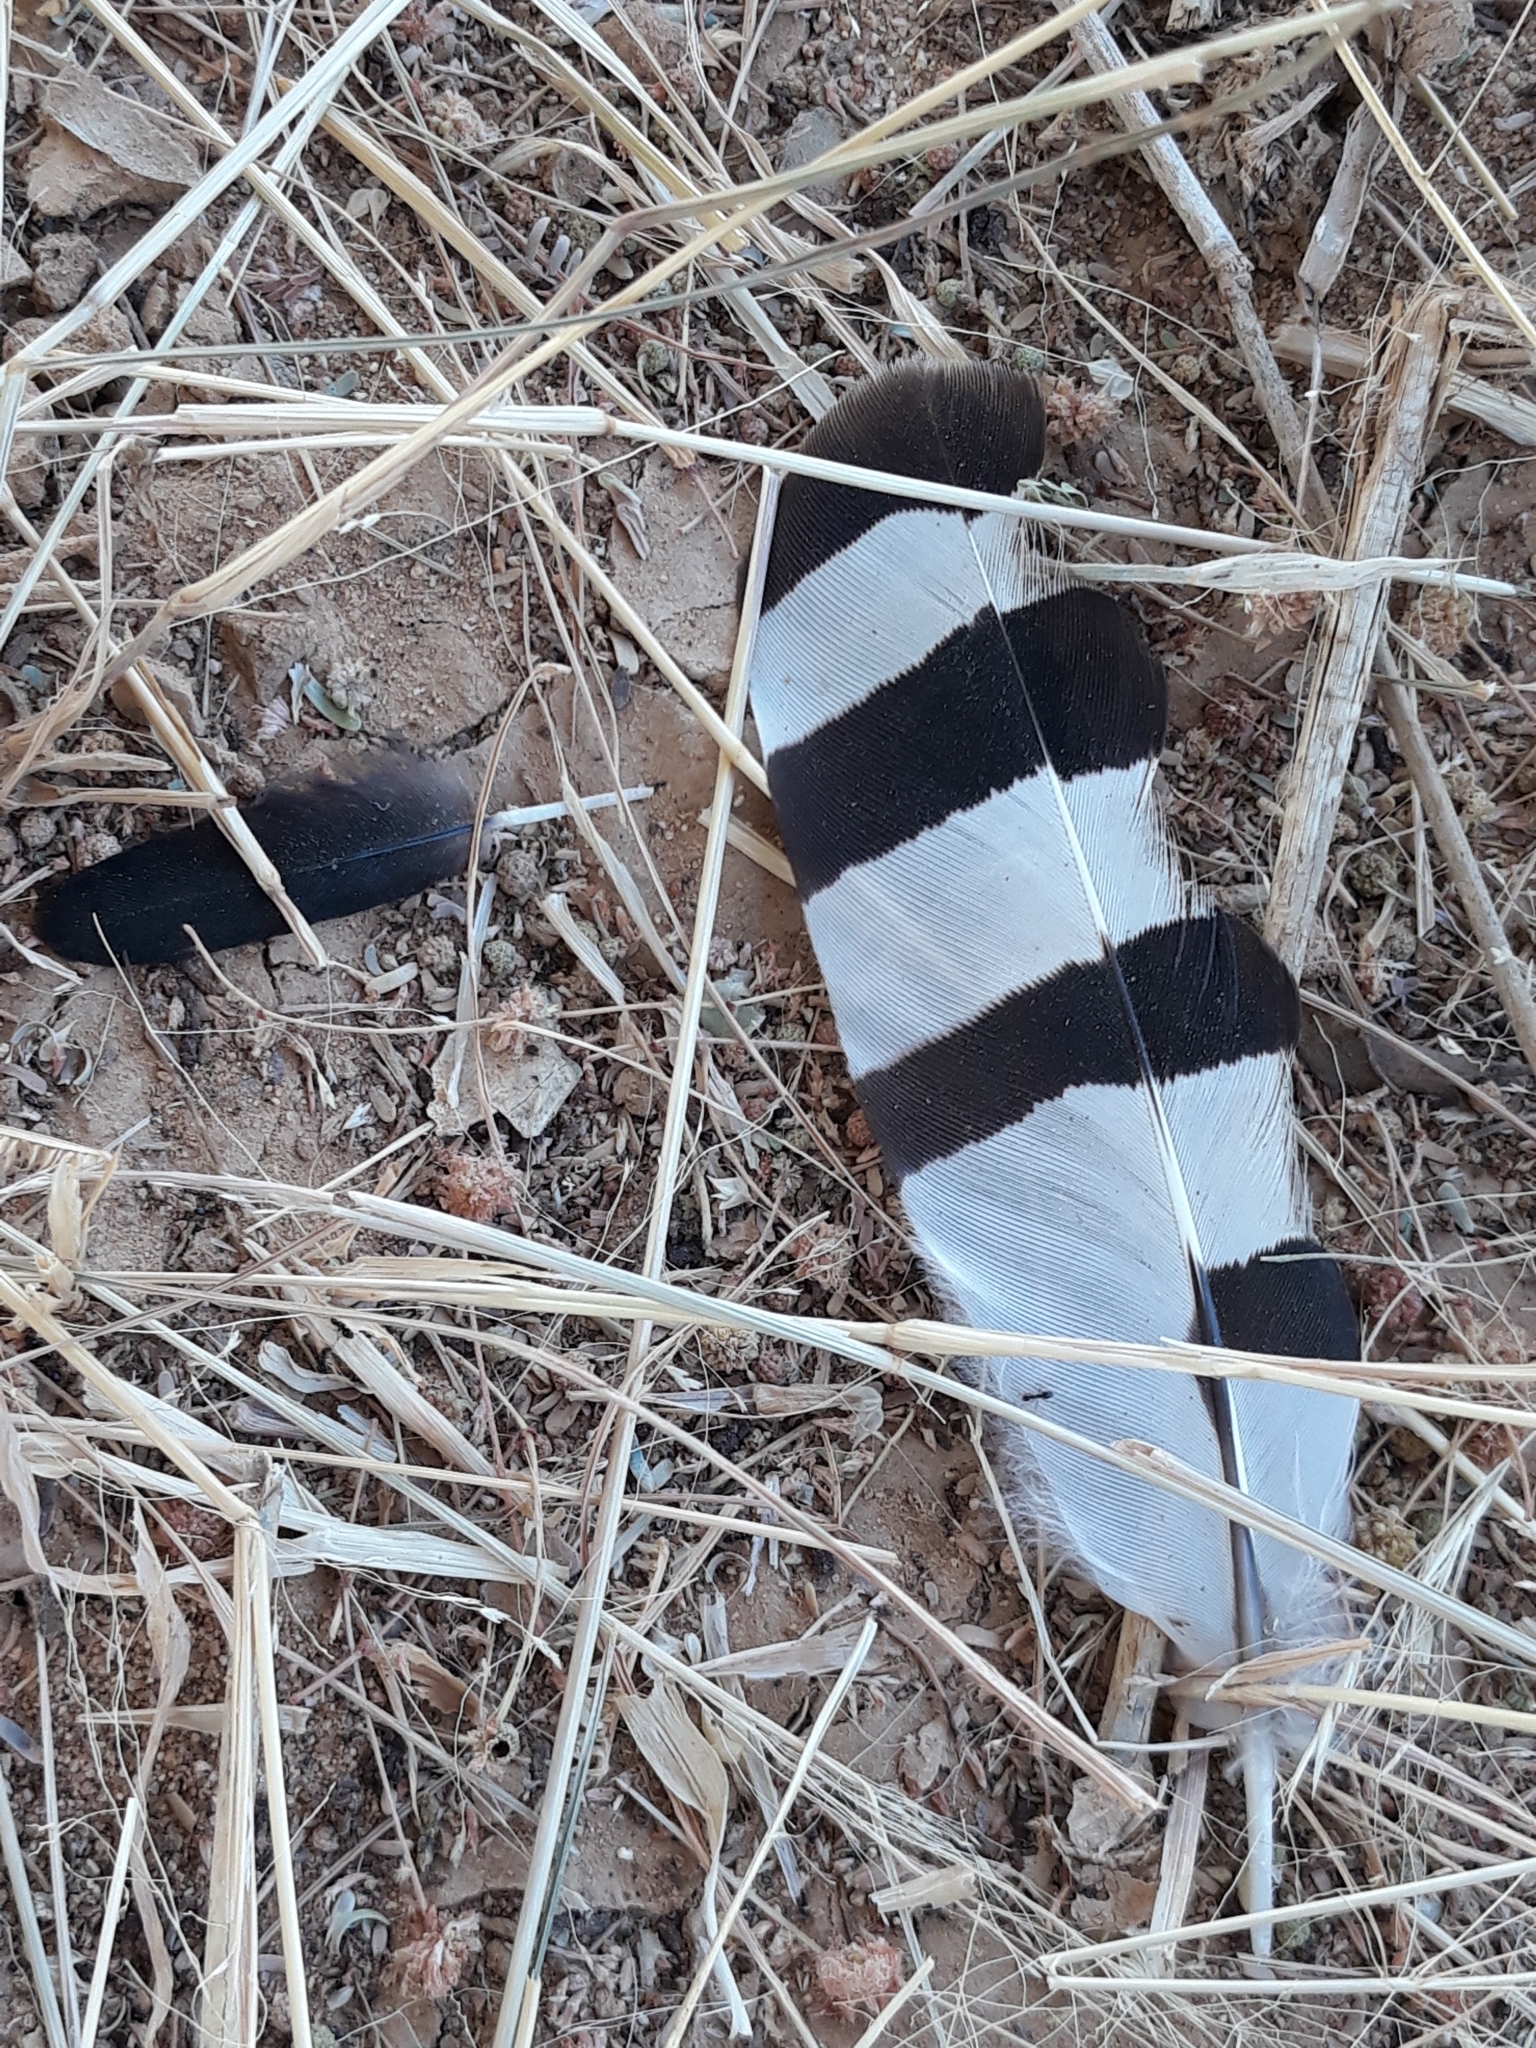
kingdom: Animalia
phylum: Chordata
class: Aves
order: Bucerotiformes
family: Upupidae
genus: Upupa
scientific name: Upupa epops
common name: Eurasian hoopoe
